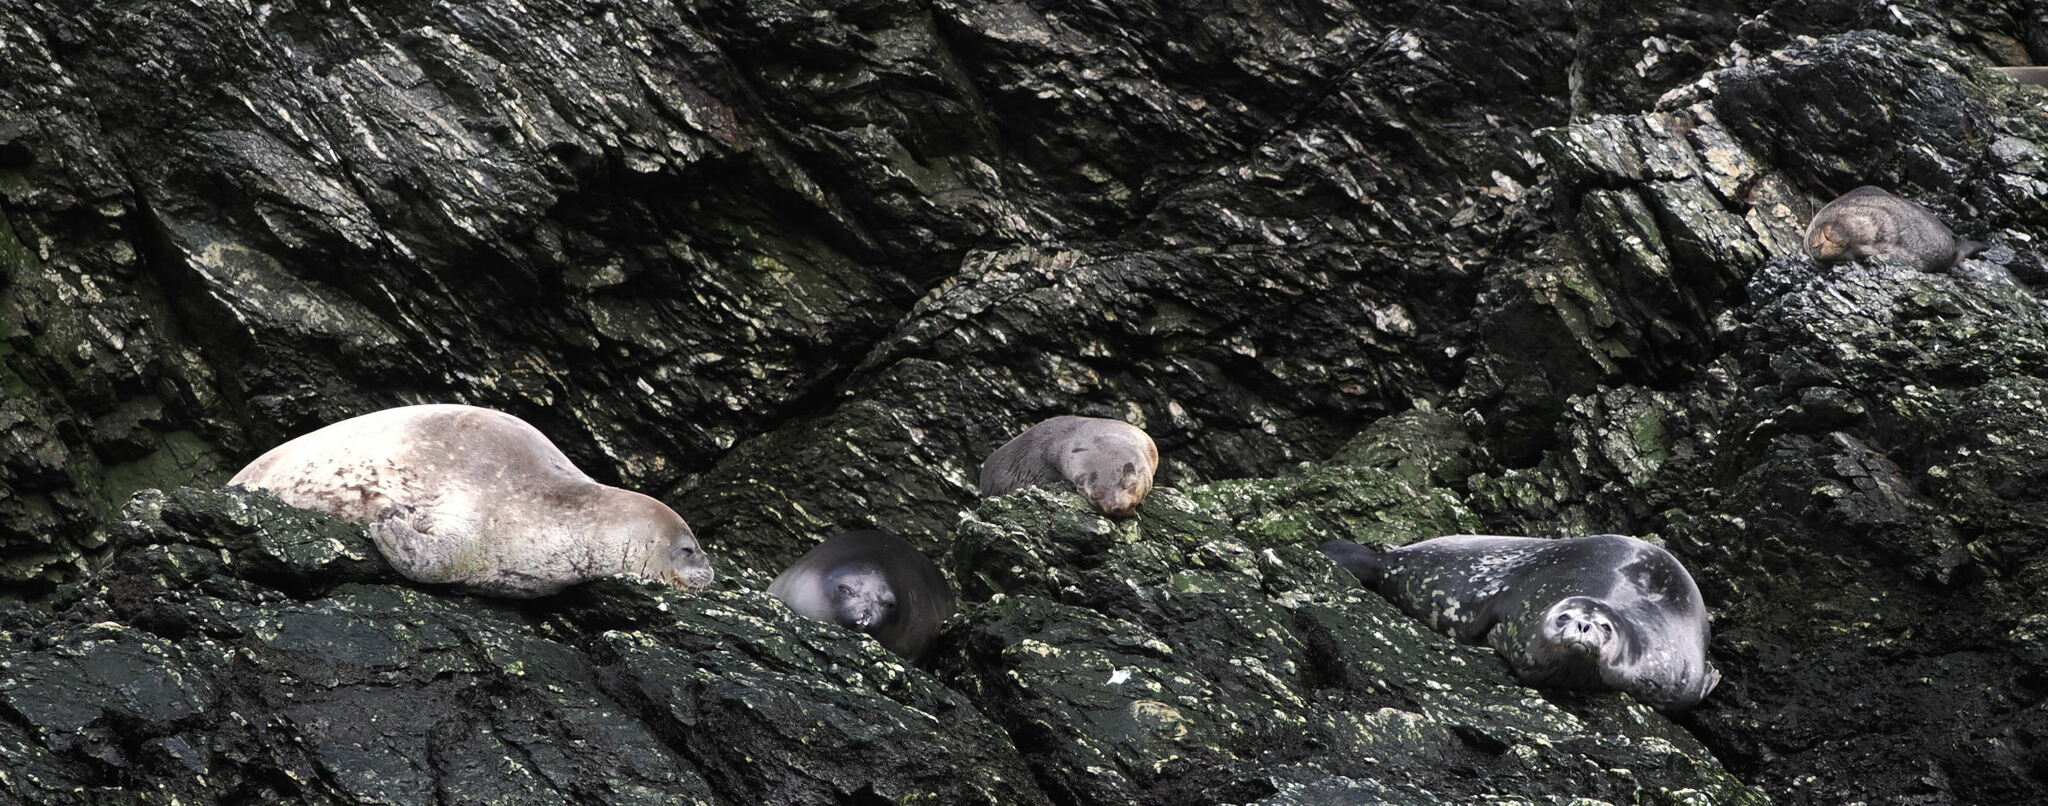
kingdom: Animalia
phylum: Chordata
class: Mammalia
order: Carnivora
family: Phocidae
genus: Leptonychotes
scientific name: Leptonychotes weddellii
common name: Weddell seal
